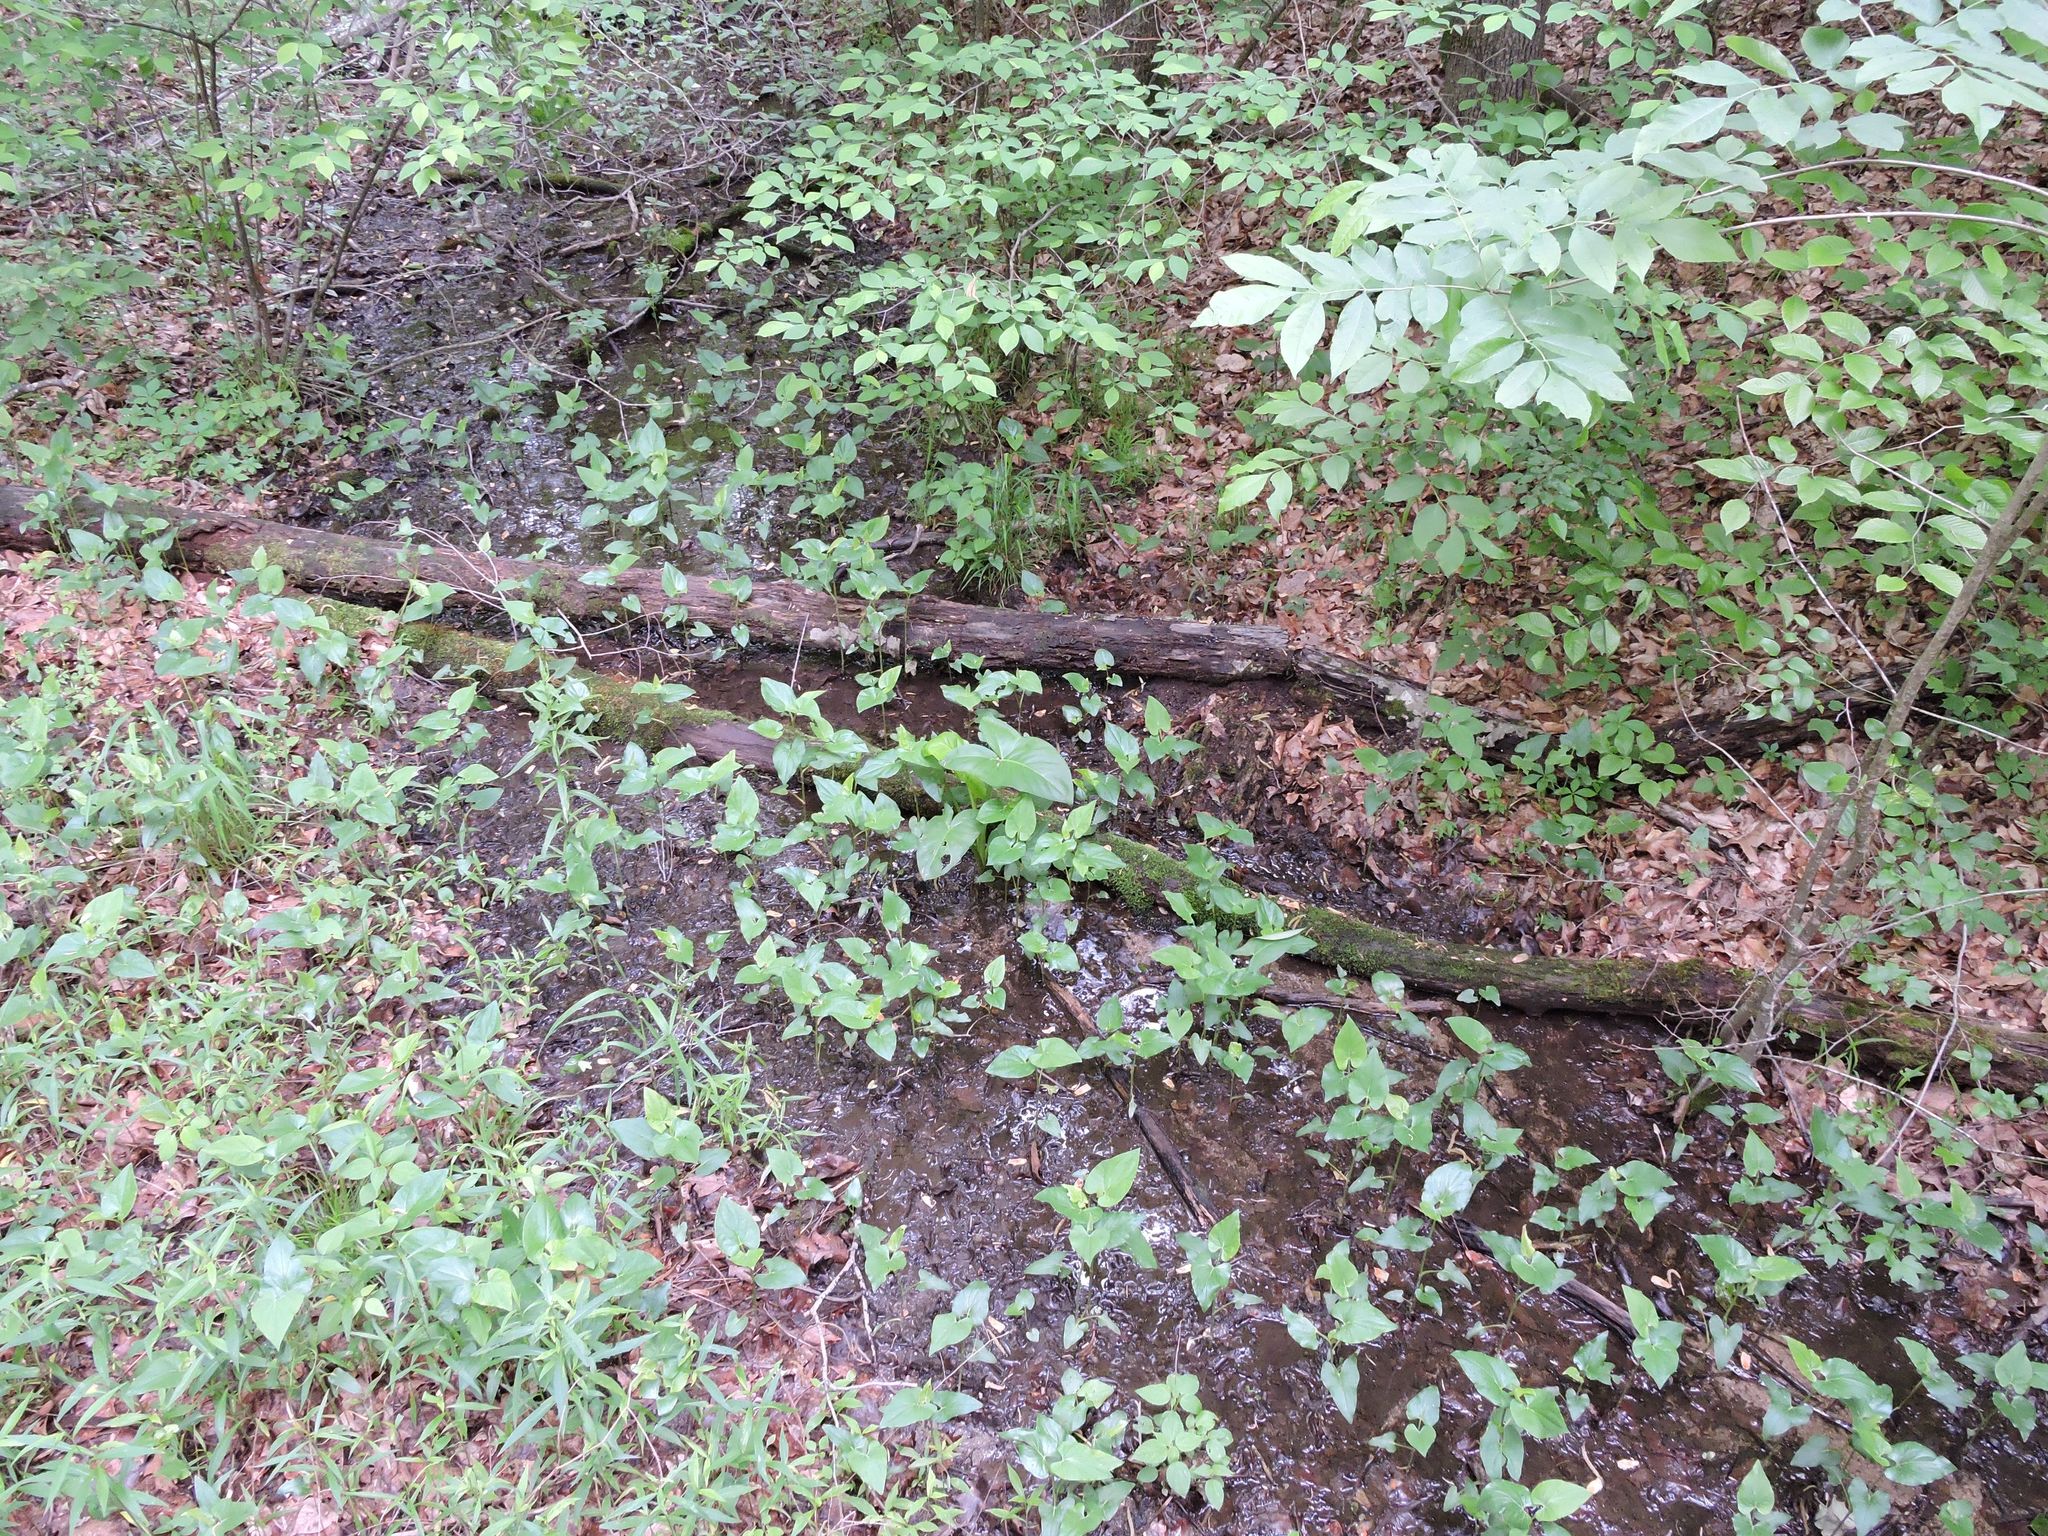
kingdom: Plantae
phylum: Tracheophyta
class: Liliopsida
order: Alismatales
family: Araceae
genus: Peltandra
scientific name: Peltandra virginica
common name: Arrow arum
